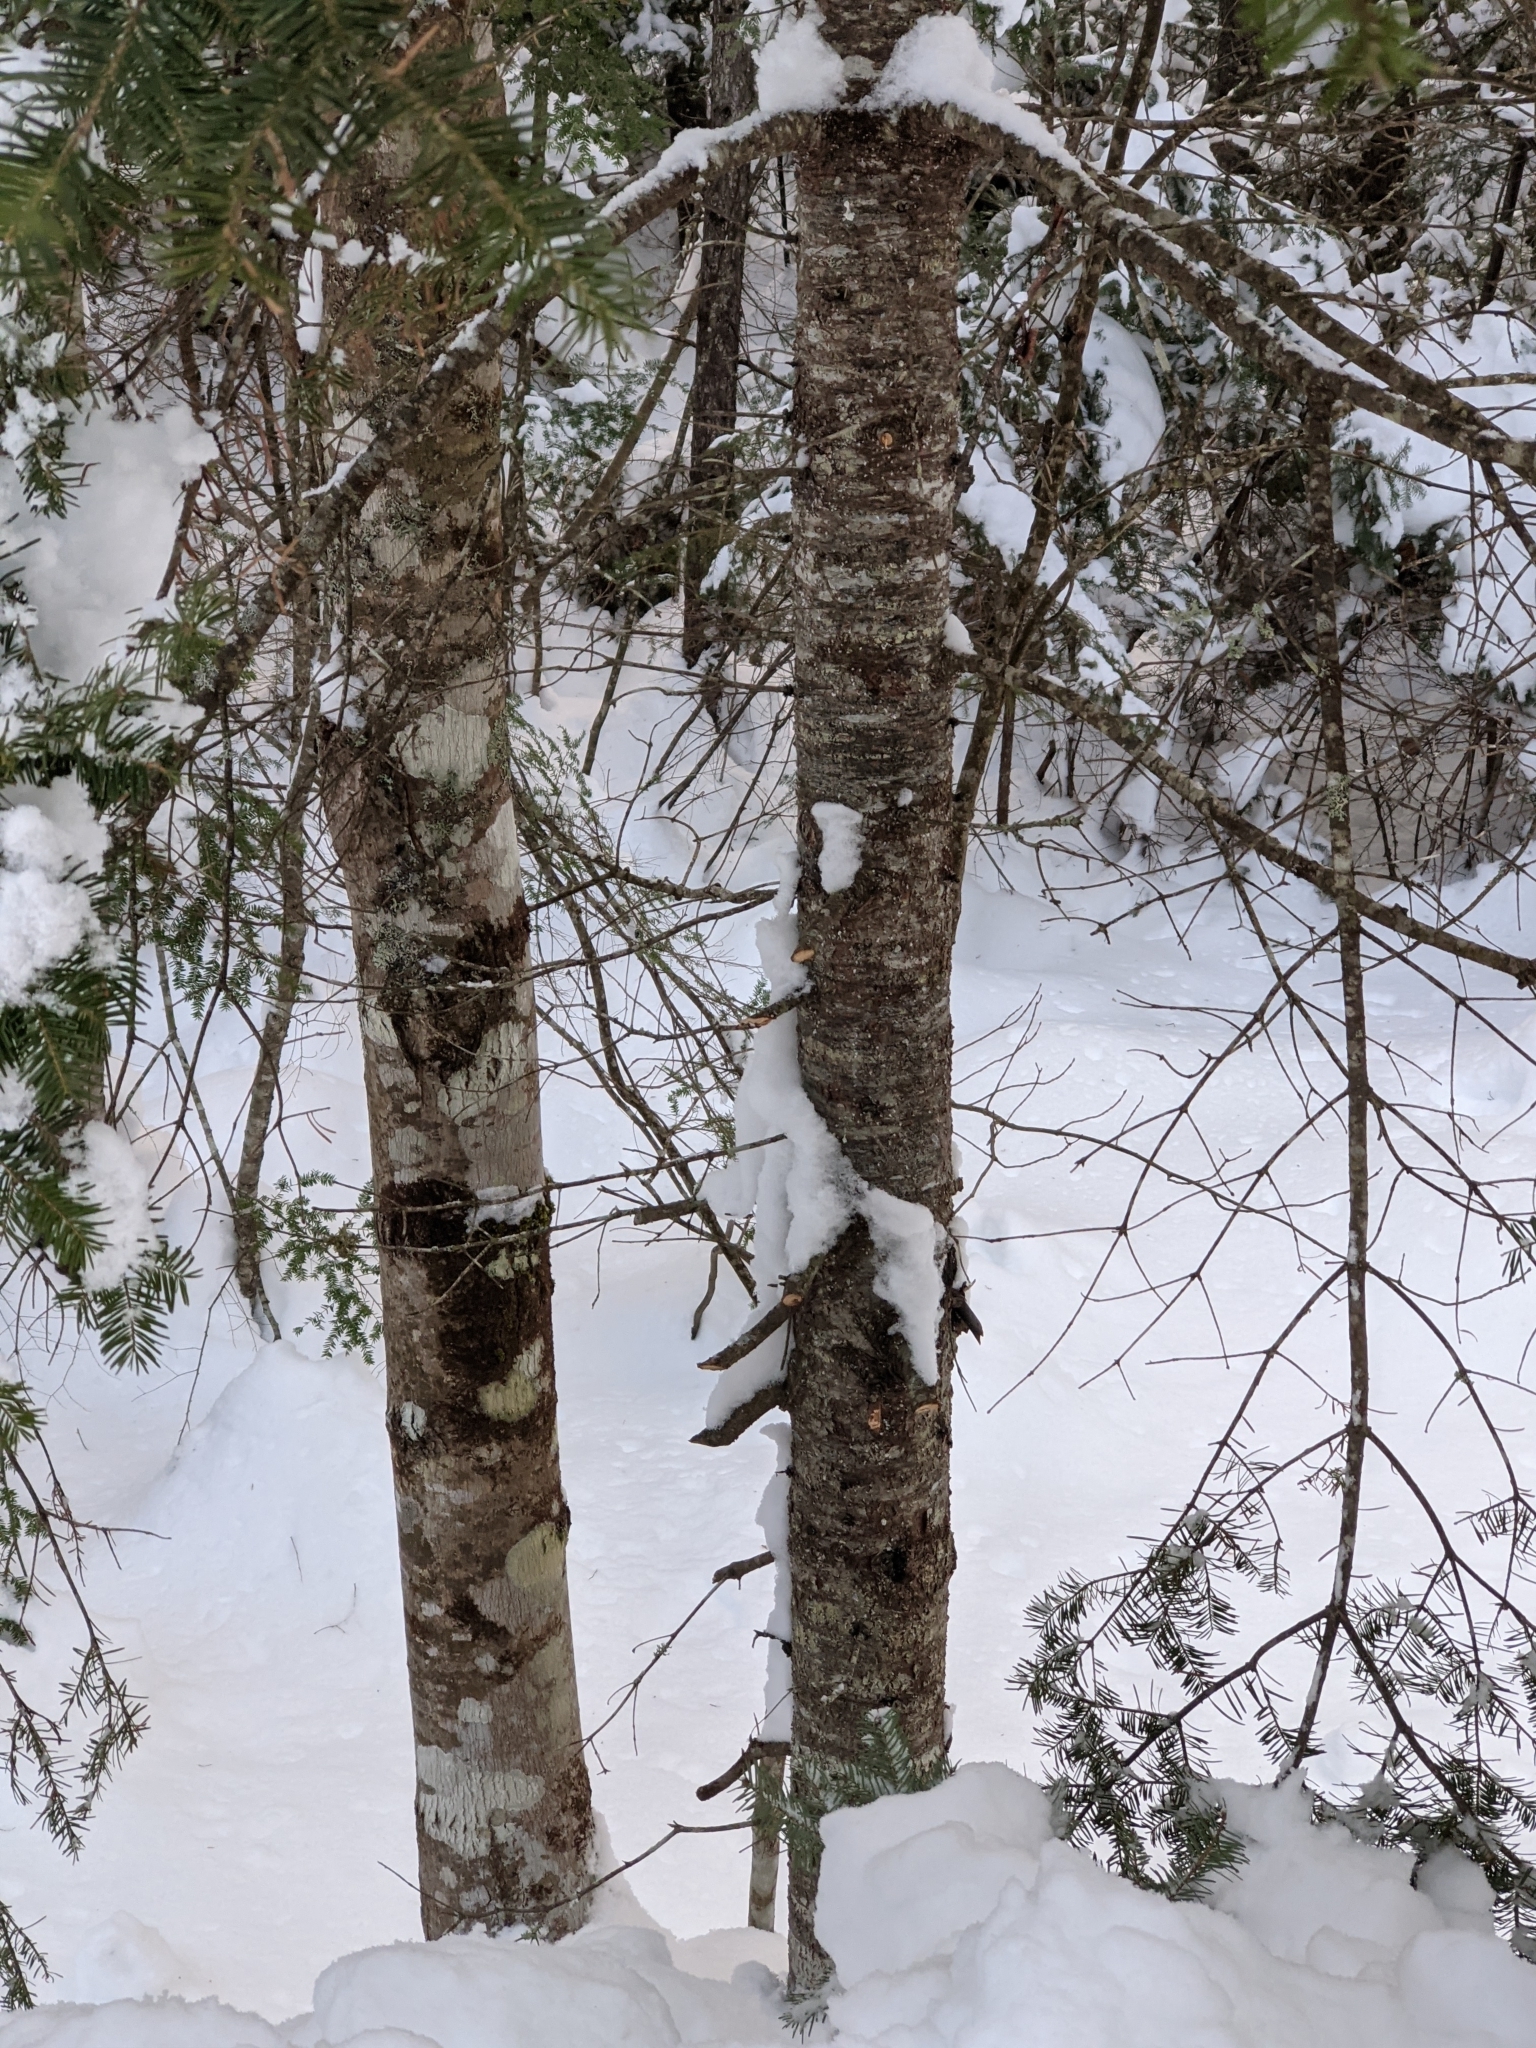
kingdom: Plantae
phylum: Tracheophyta
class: Pinopsida
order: Pinales
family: Pinaceae
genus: Abies
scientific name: Abies balsamea
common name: Balsam fir
